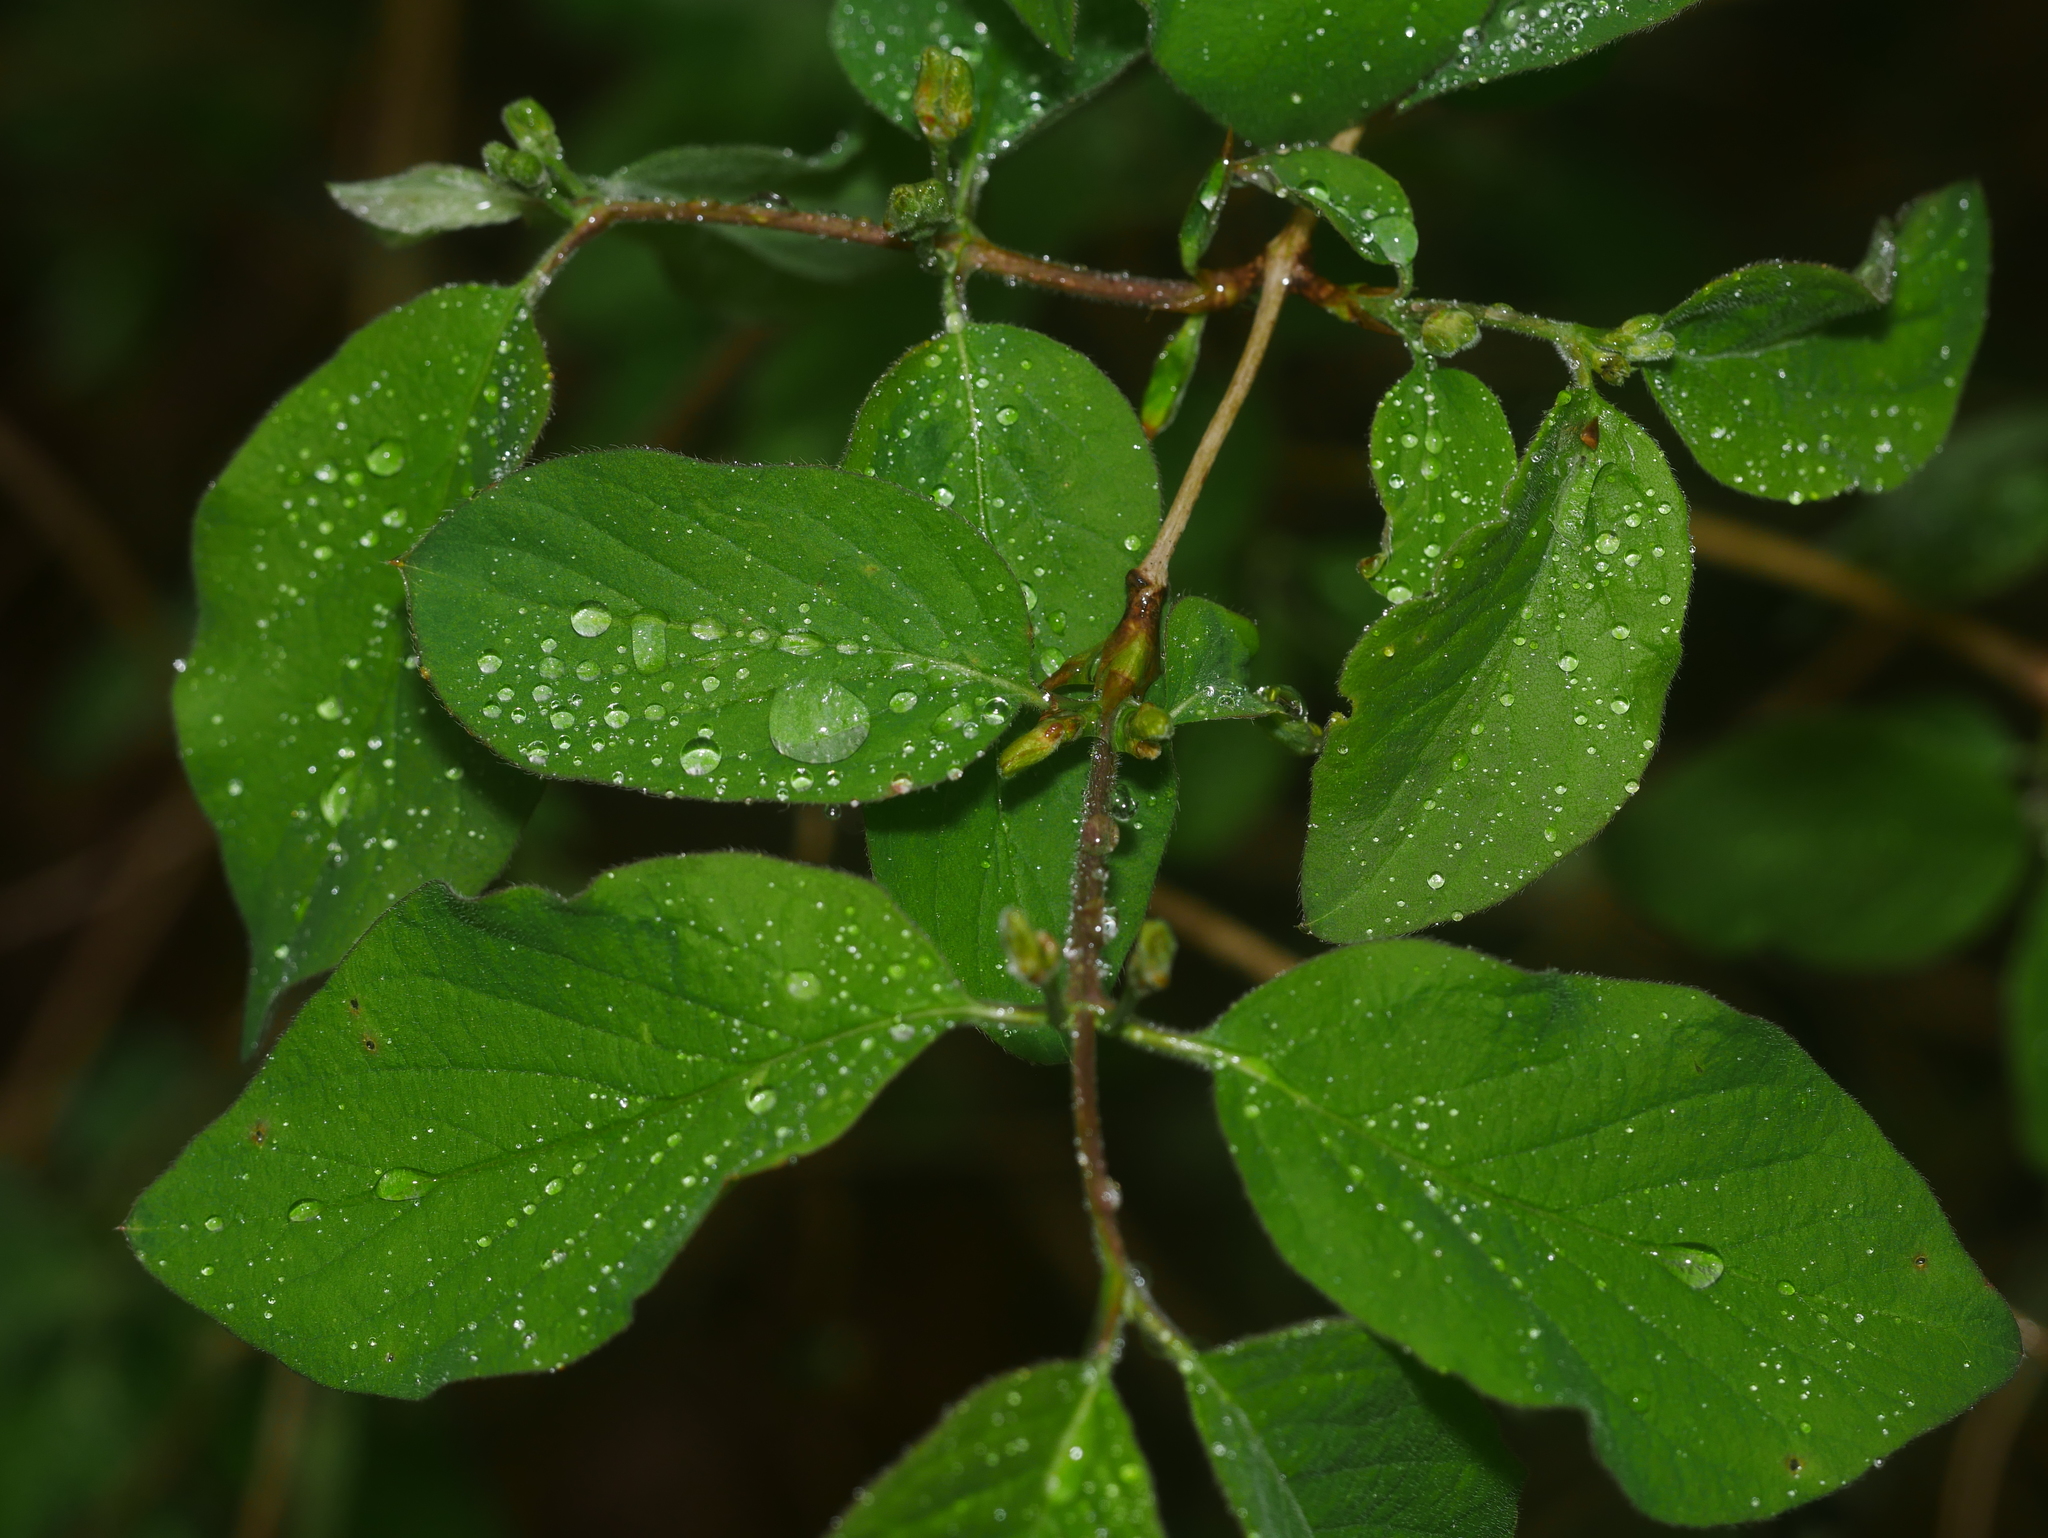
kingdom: Plantae
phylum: Tracheophyta
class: Magnoliopsida
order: Dipsacales
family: Caprifoliaceae
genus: Lonicera
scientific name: Lonicera xylosteum
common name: Fly honeysuckle
